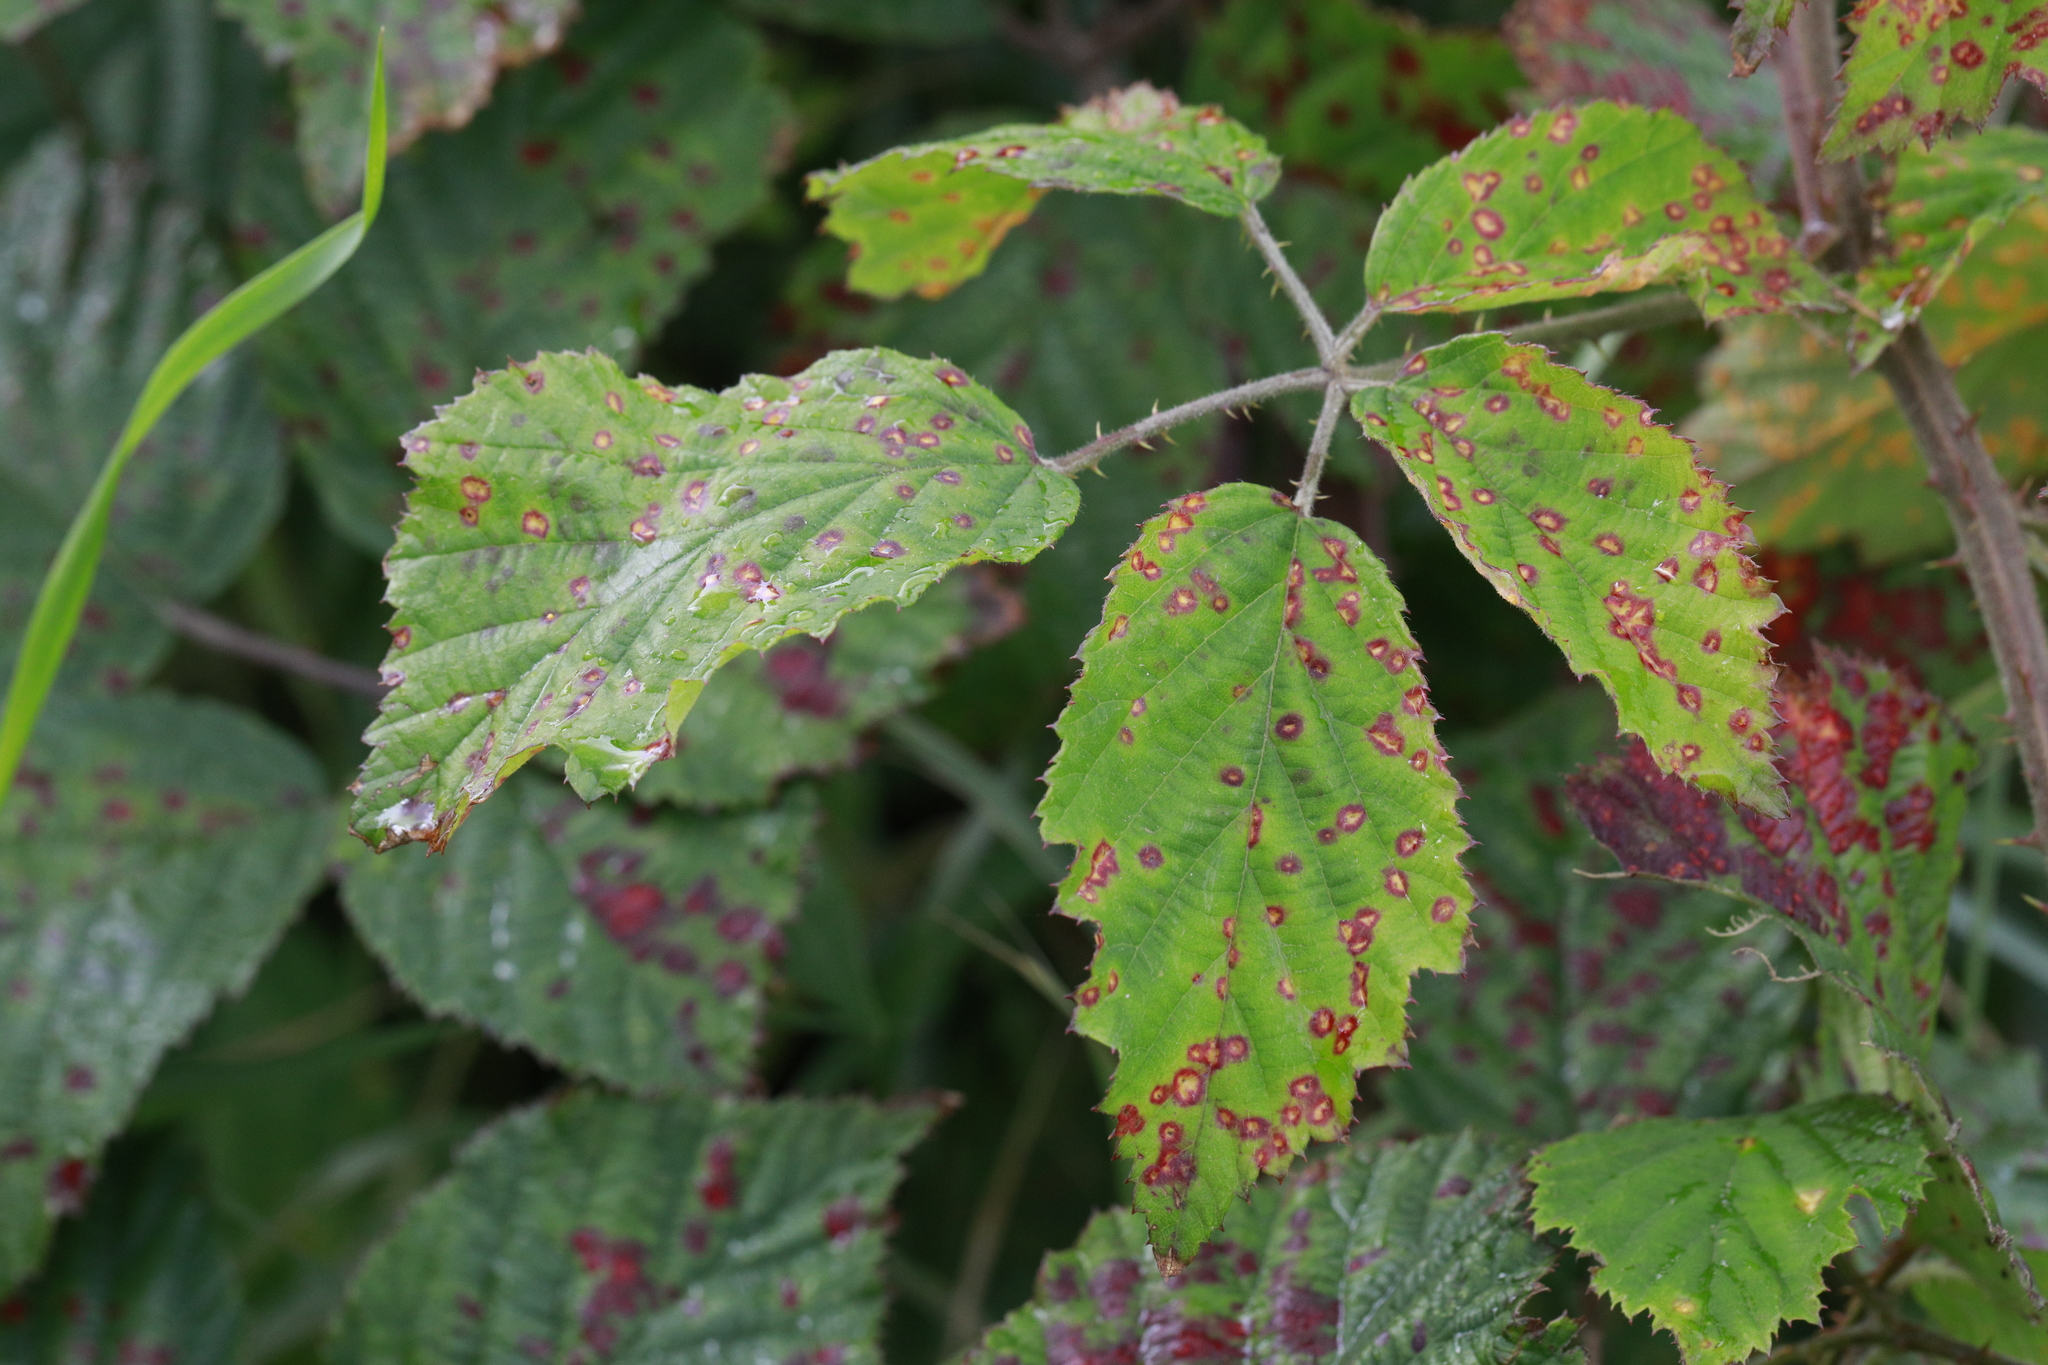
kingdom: Plantae
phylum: Tracheophyta
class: Magnoliopsida
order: Rosales
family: Rosaceae
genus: Rubus
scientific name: Rubus bartonii
